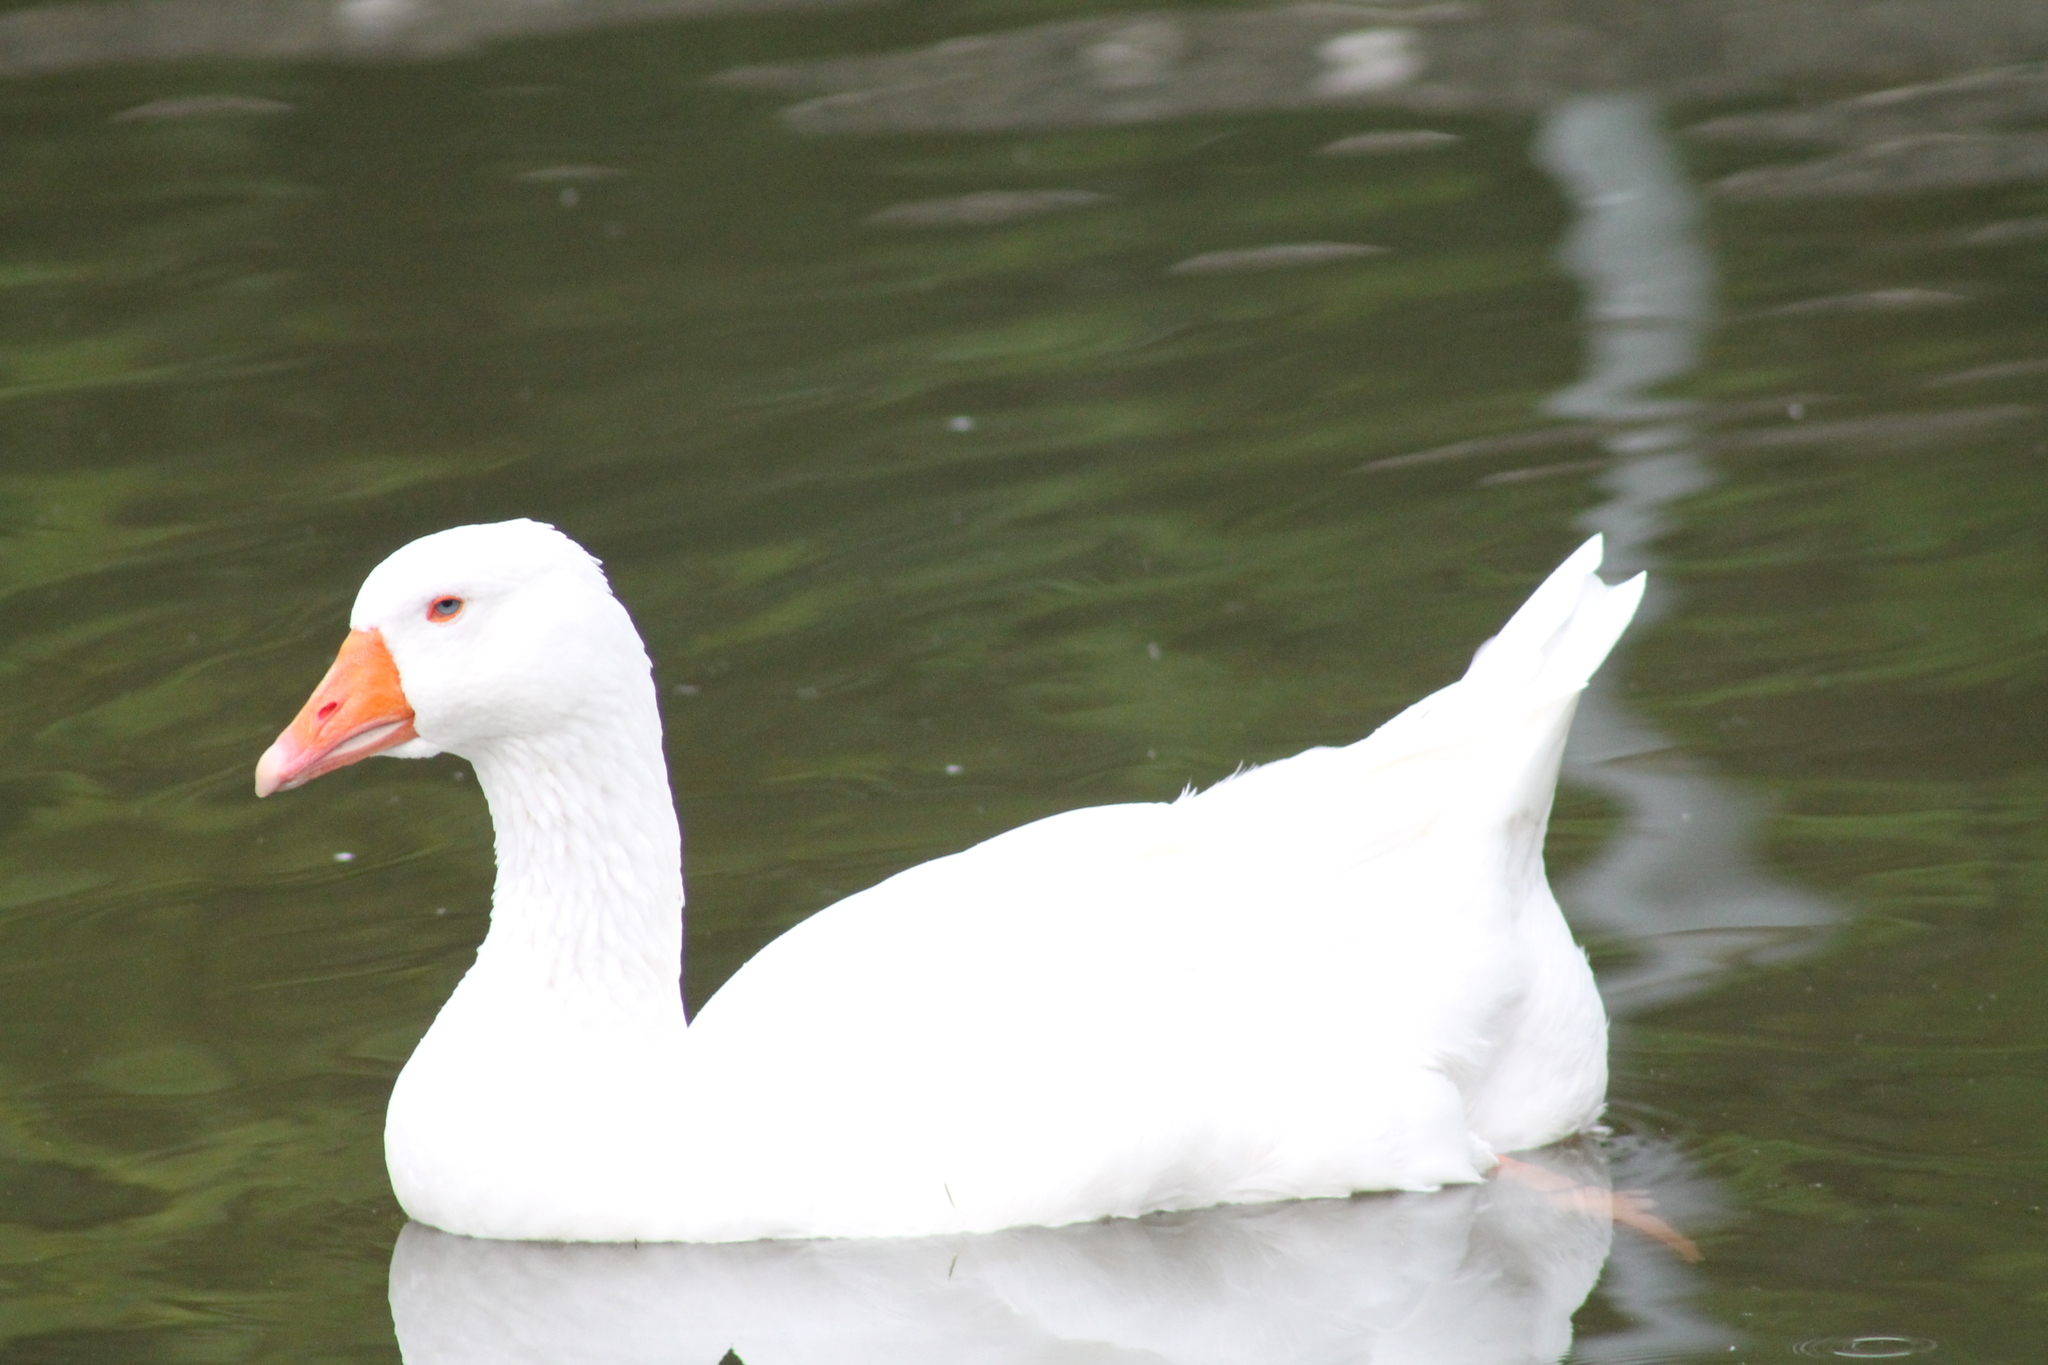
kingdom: Animalia
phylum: Chordata
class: Aves
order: Anseriformes
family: Anatidae
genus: Anser
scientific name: Anser anser
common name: Greylag goose
